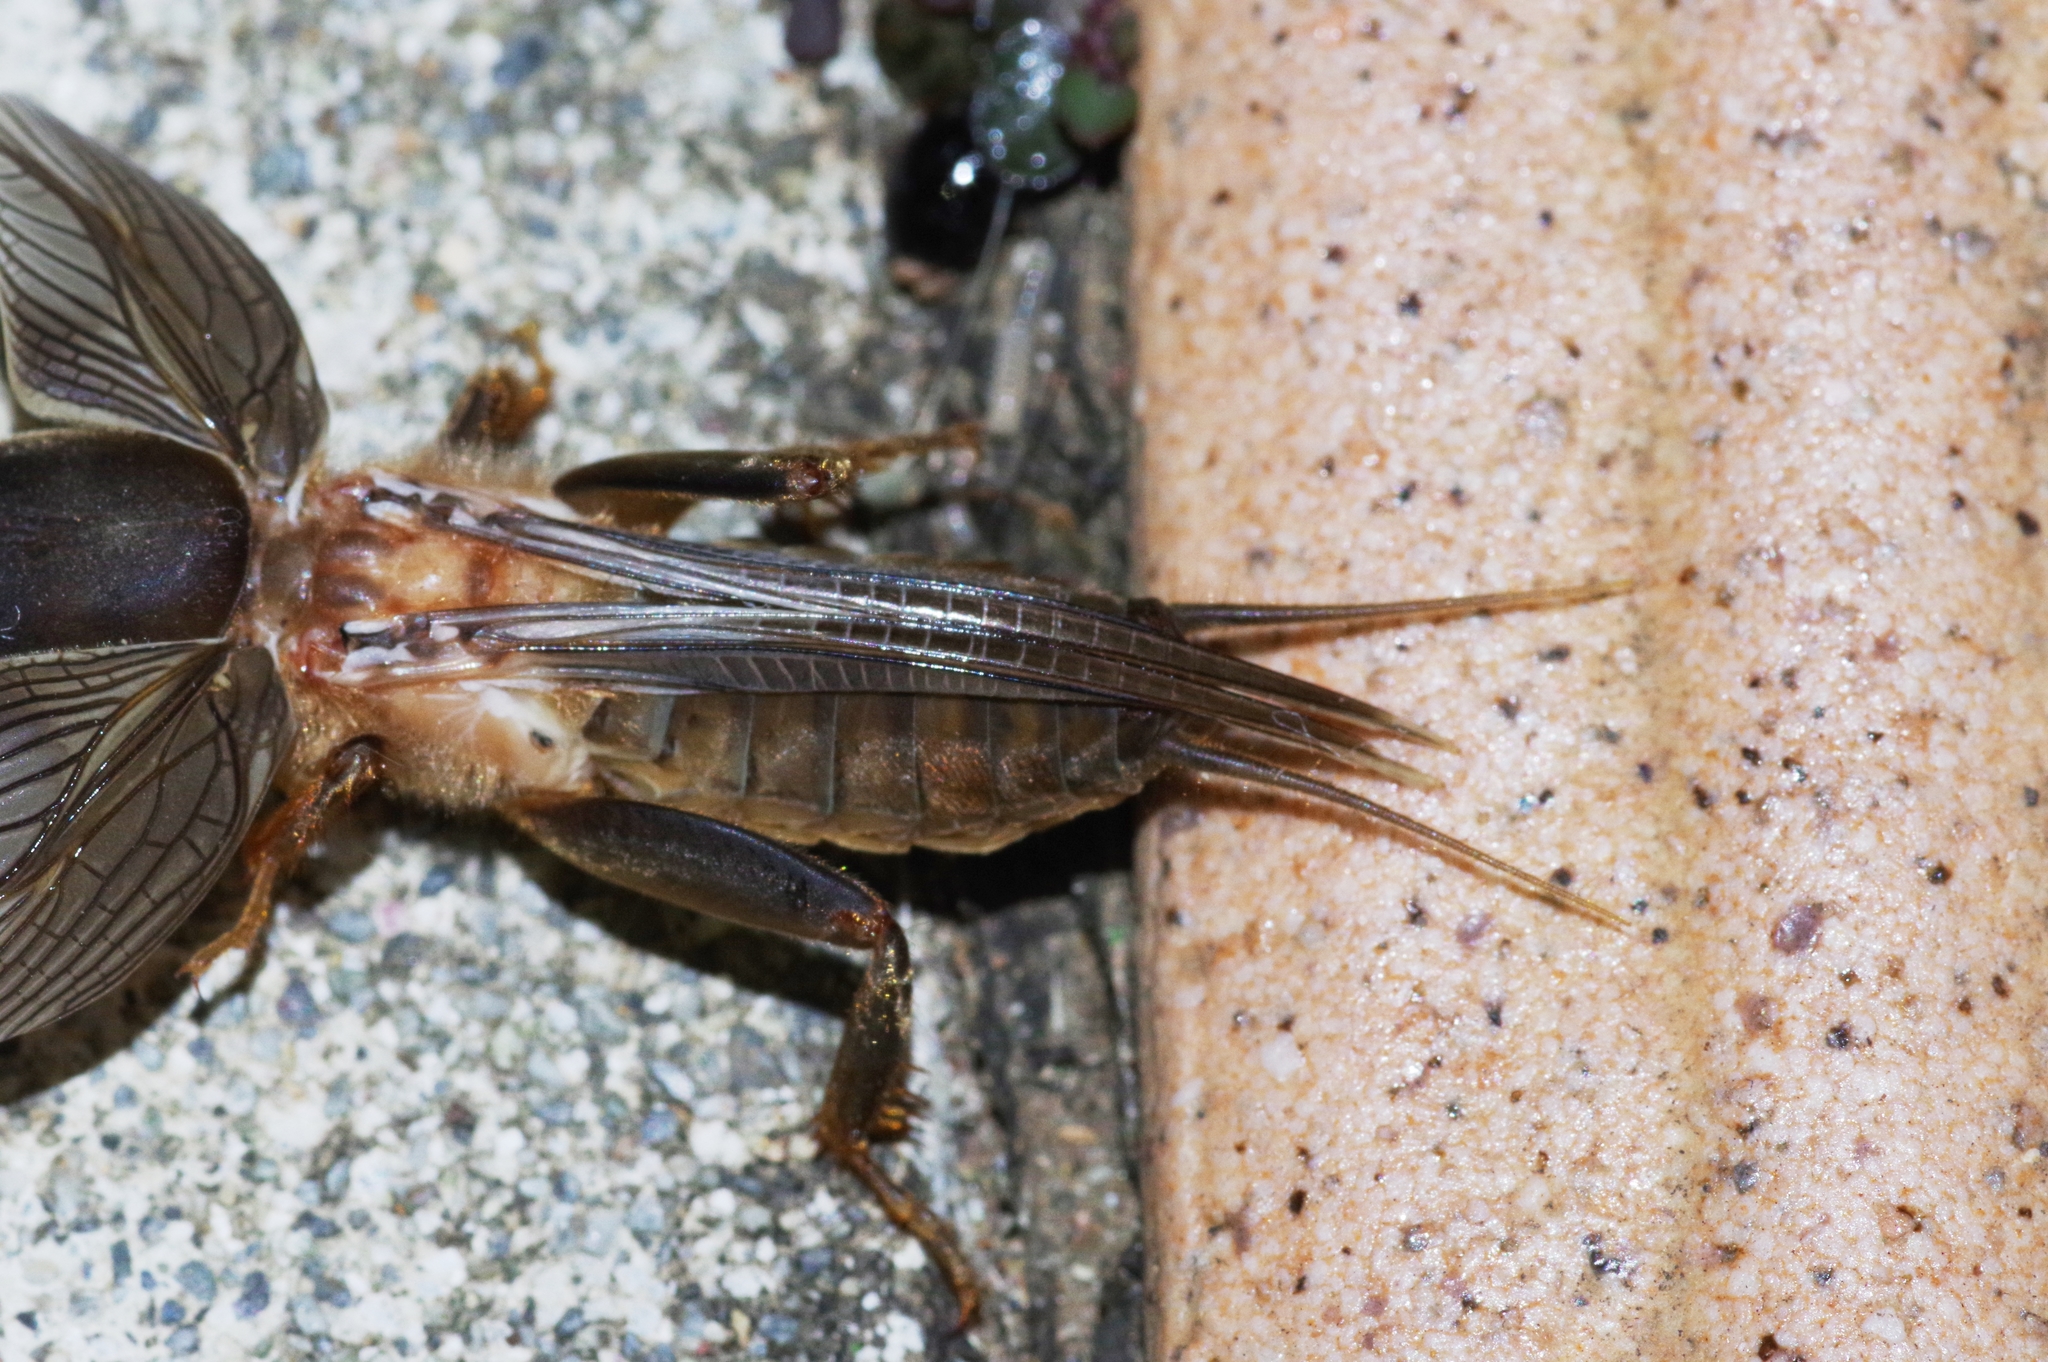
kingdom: Animalia
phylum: Arthropoda
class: Insecta
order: Orthoptera
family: Gryllotalpidae
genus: Gryllotalpa
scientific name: Gryllotalpa orientalis
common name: Grasshopper
